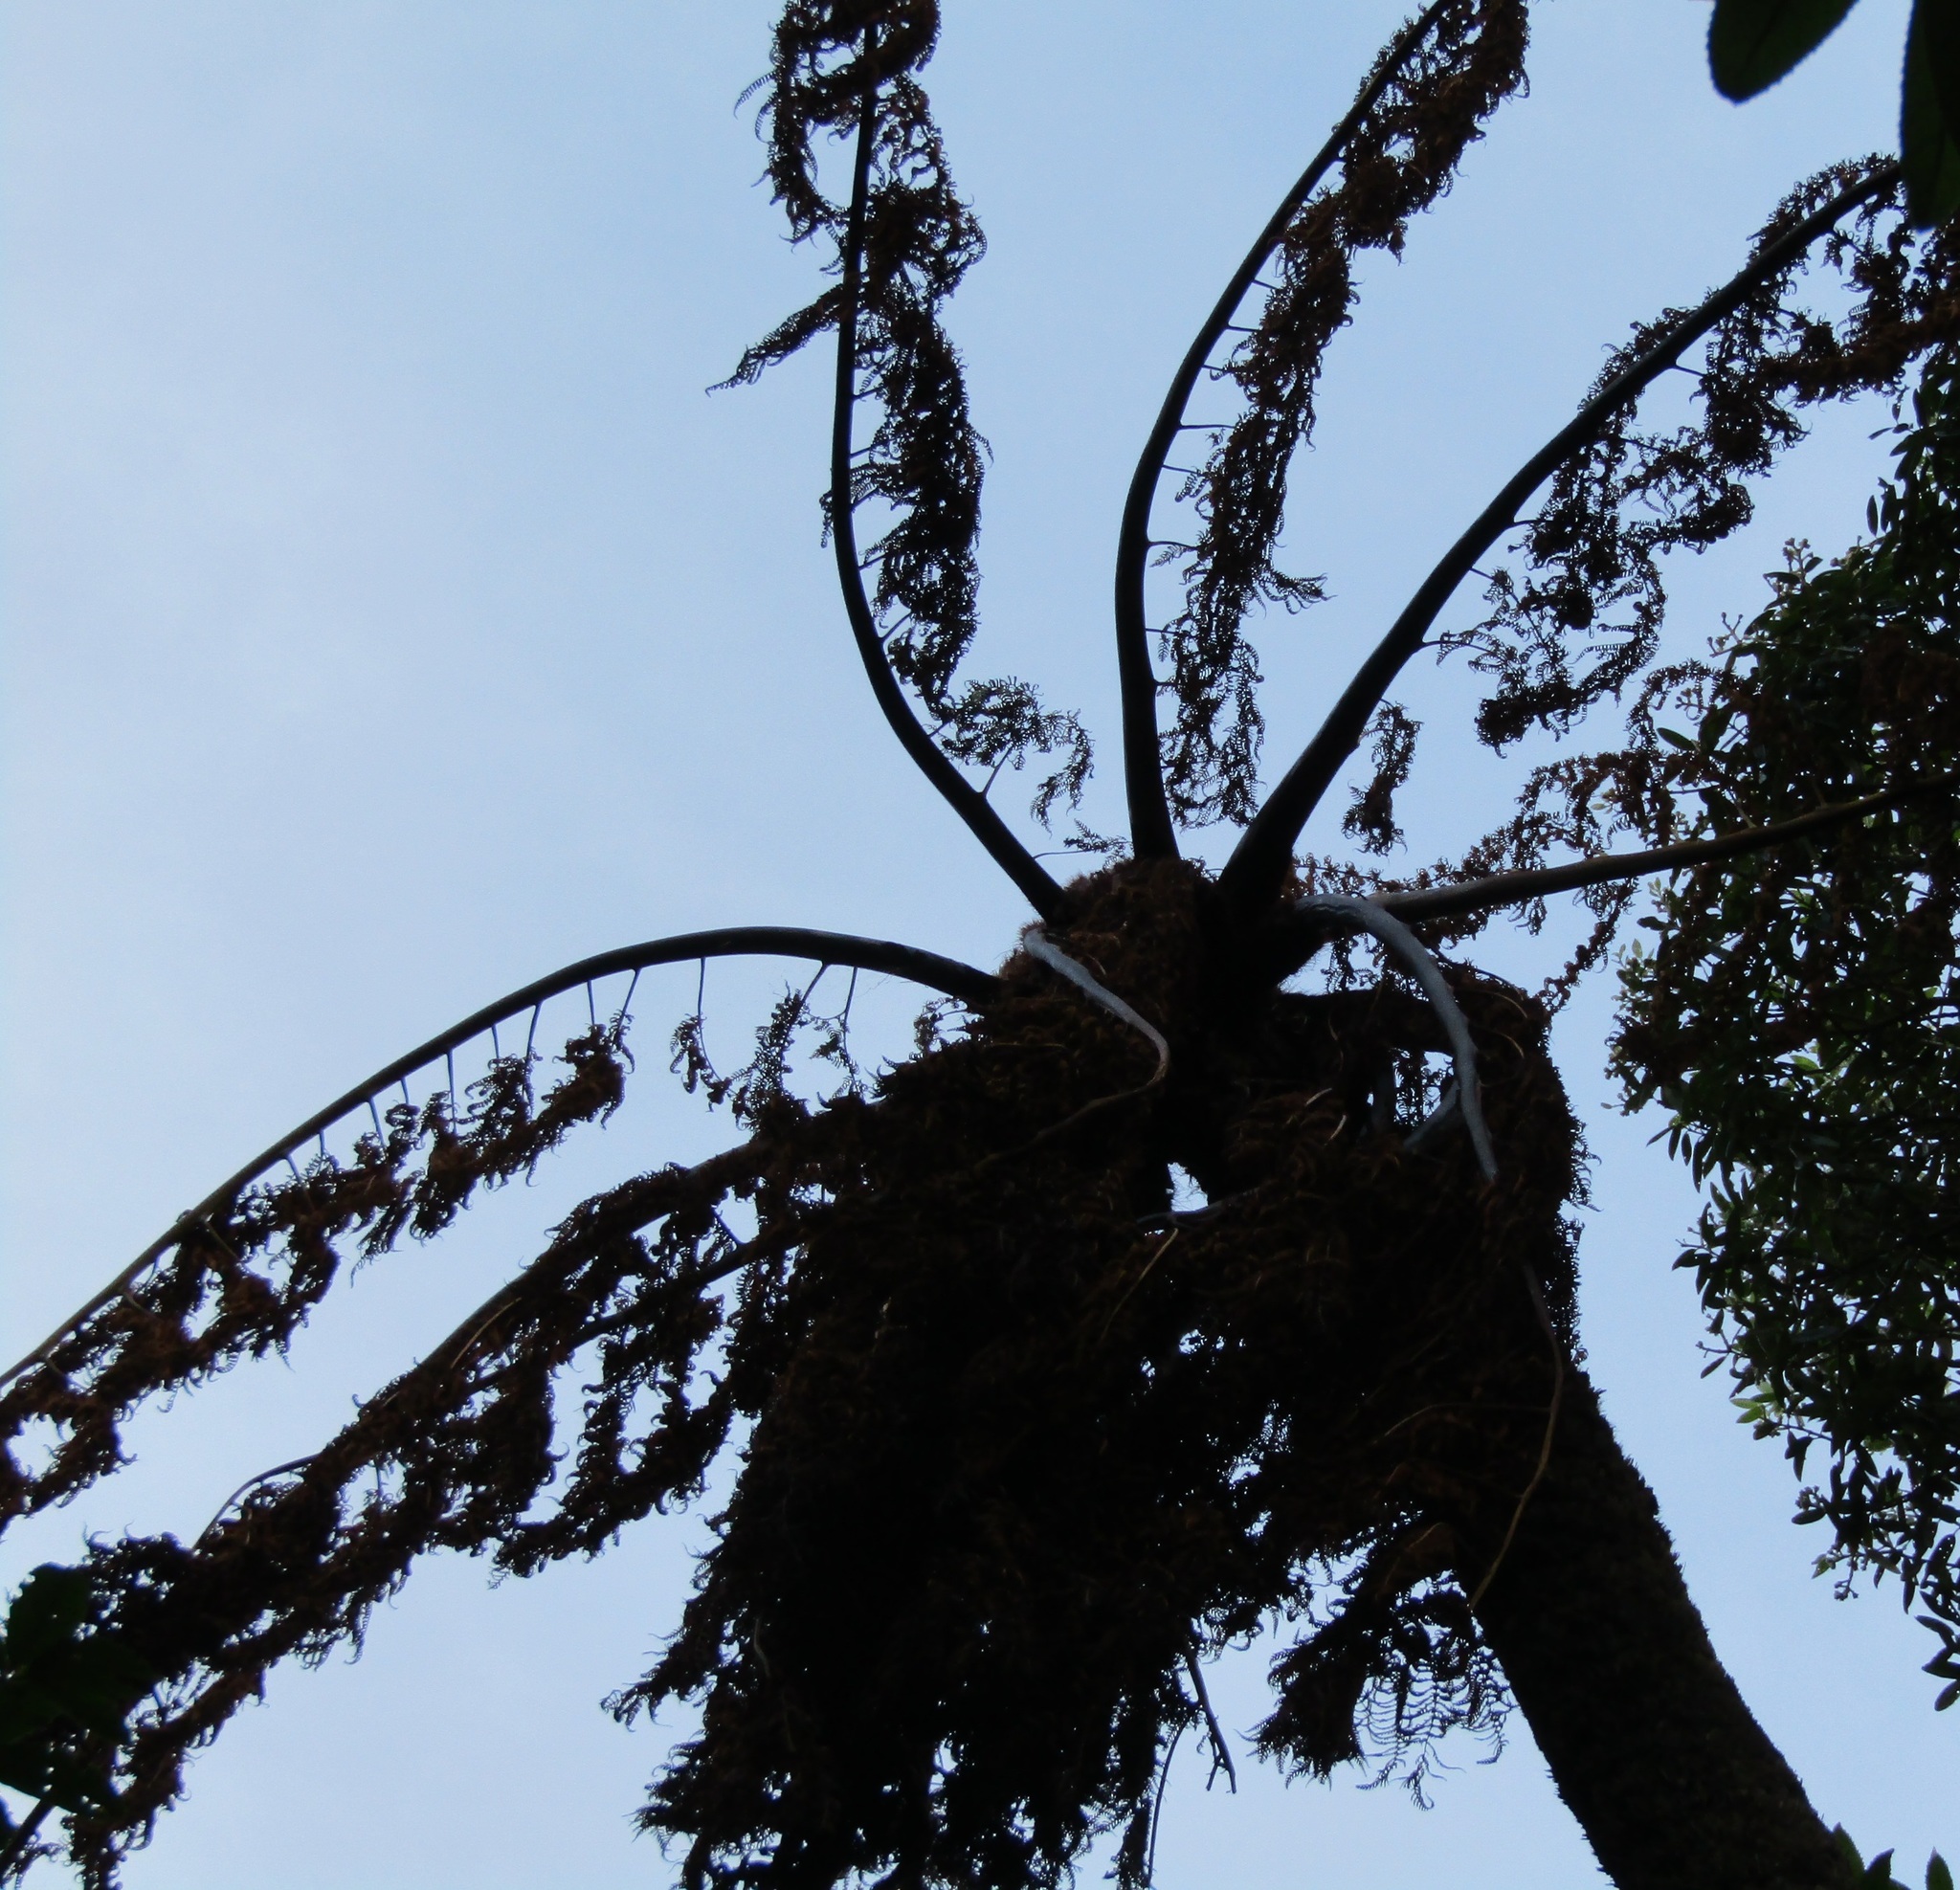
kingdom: Plantae
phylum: Tracheophyta
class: Polypodiopsida
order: Cyatheales
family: Cyatheaceae
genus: Sphaeropteris
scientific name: Sphaeropteris medullaris
